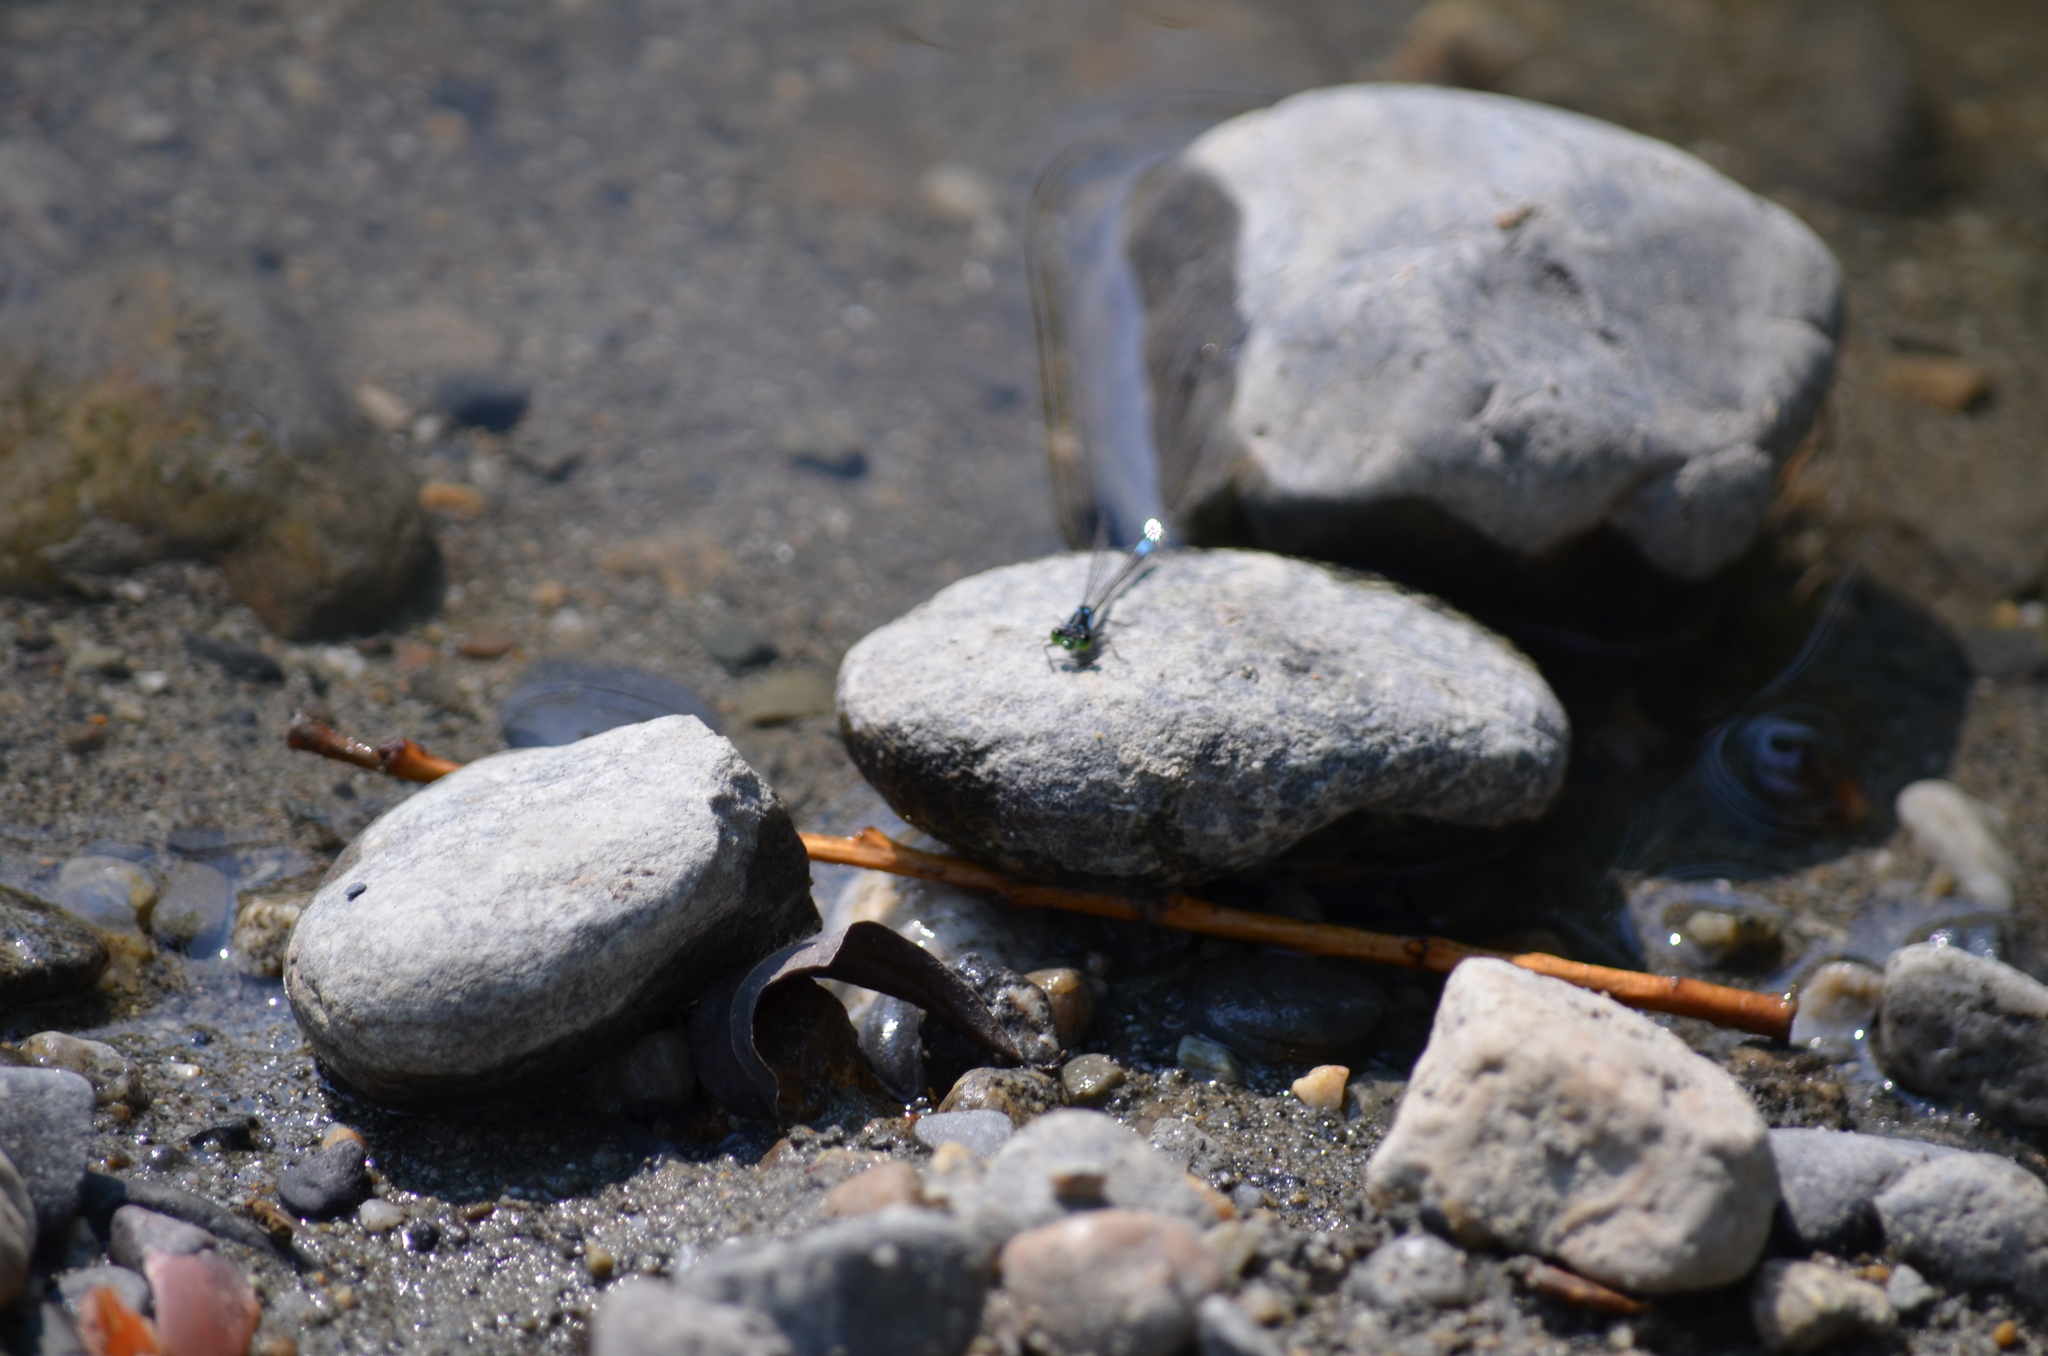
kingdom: Animalia
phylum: Arthropoda
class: Insecta
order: Odonata
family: Coenagrionidae
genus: Ischnura
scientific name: Ischnura cervula
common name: Pacific forktail
